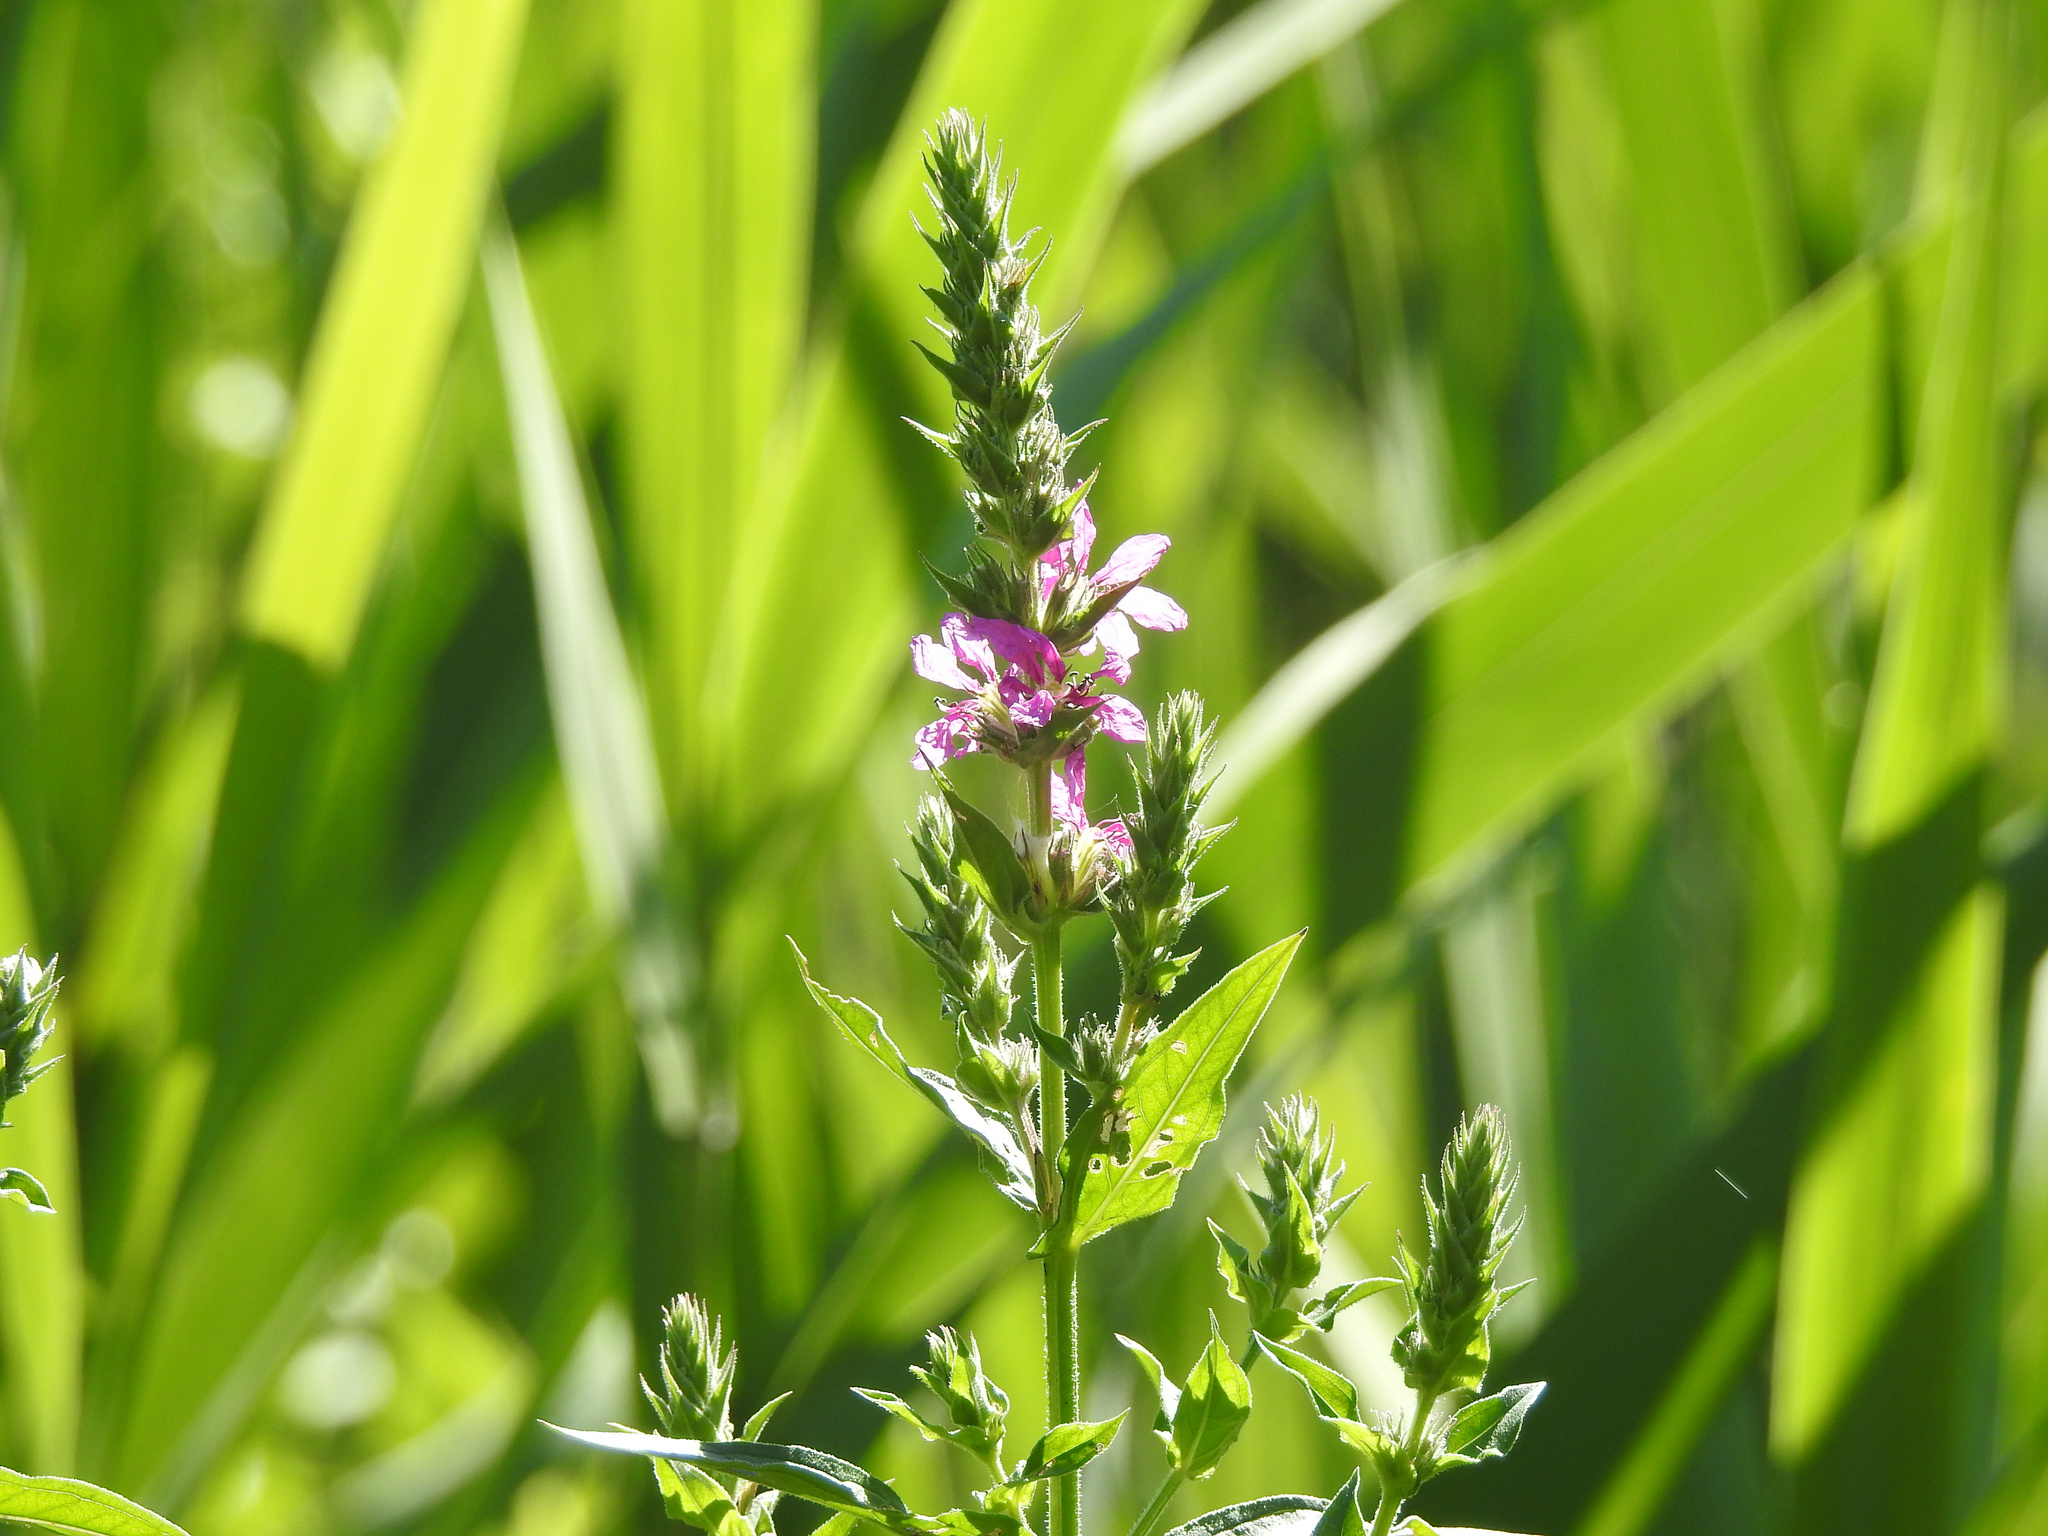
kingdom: Plantae
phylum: Tracheophyta
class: Magnoliopsida
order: Myrtales
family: Lythraceae
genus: Lythrum
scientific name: Lythrum salicaria
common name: Purple loosestrife
